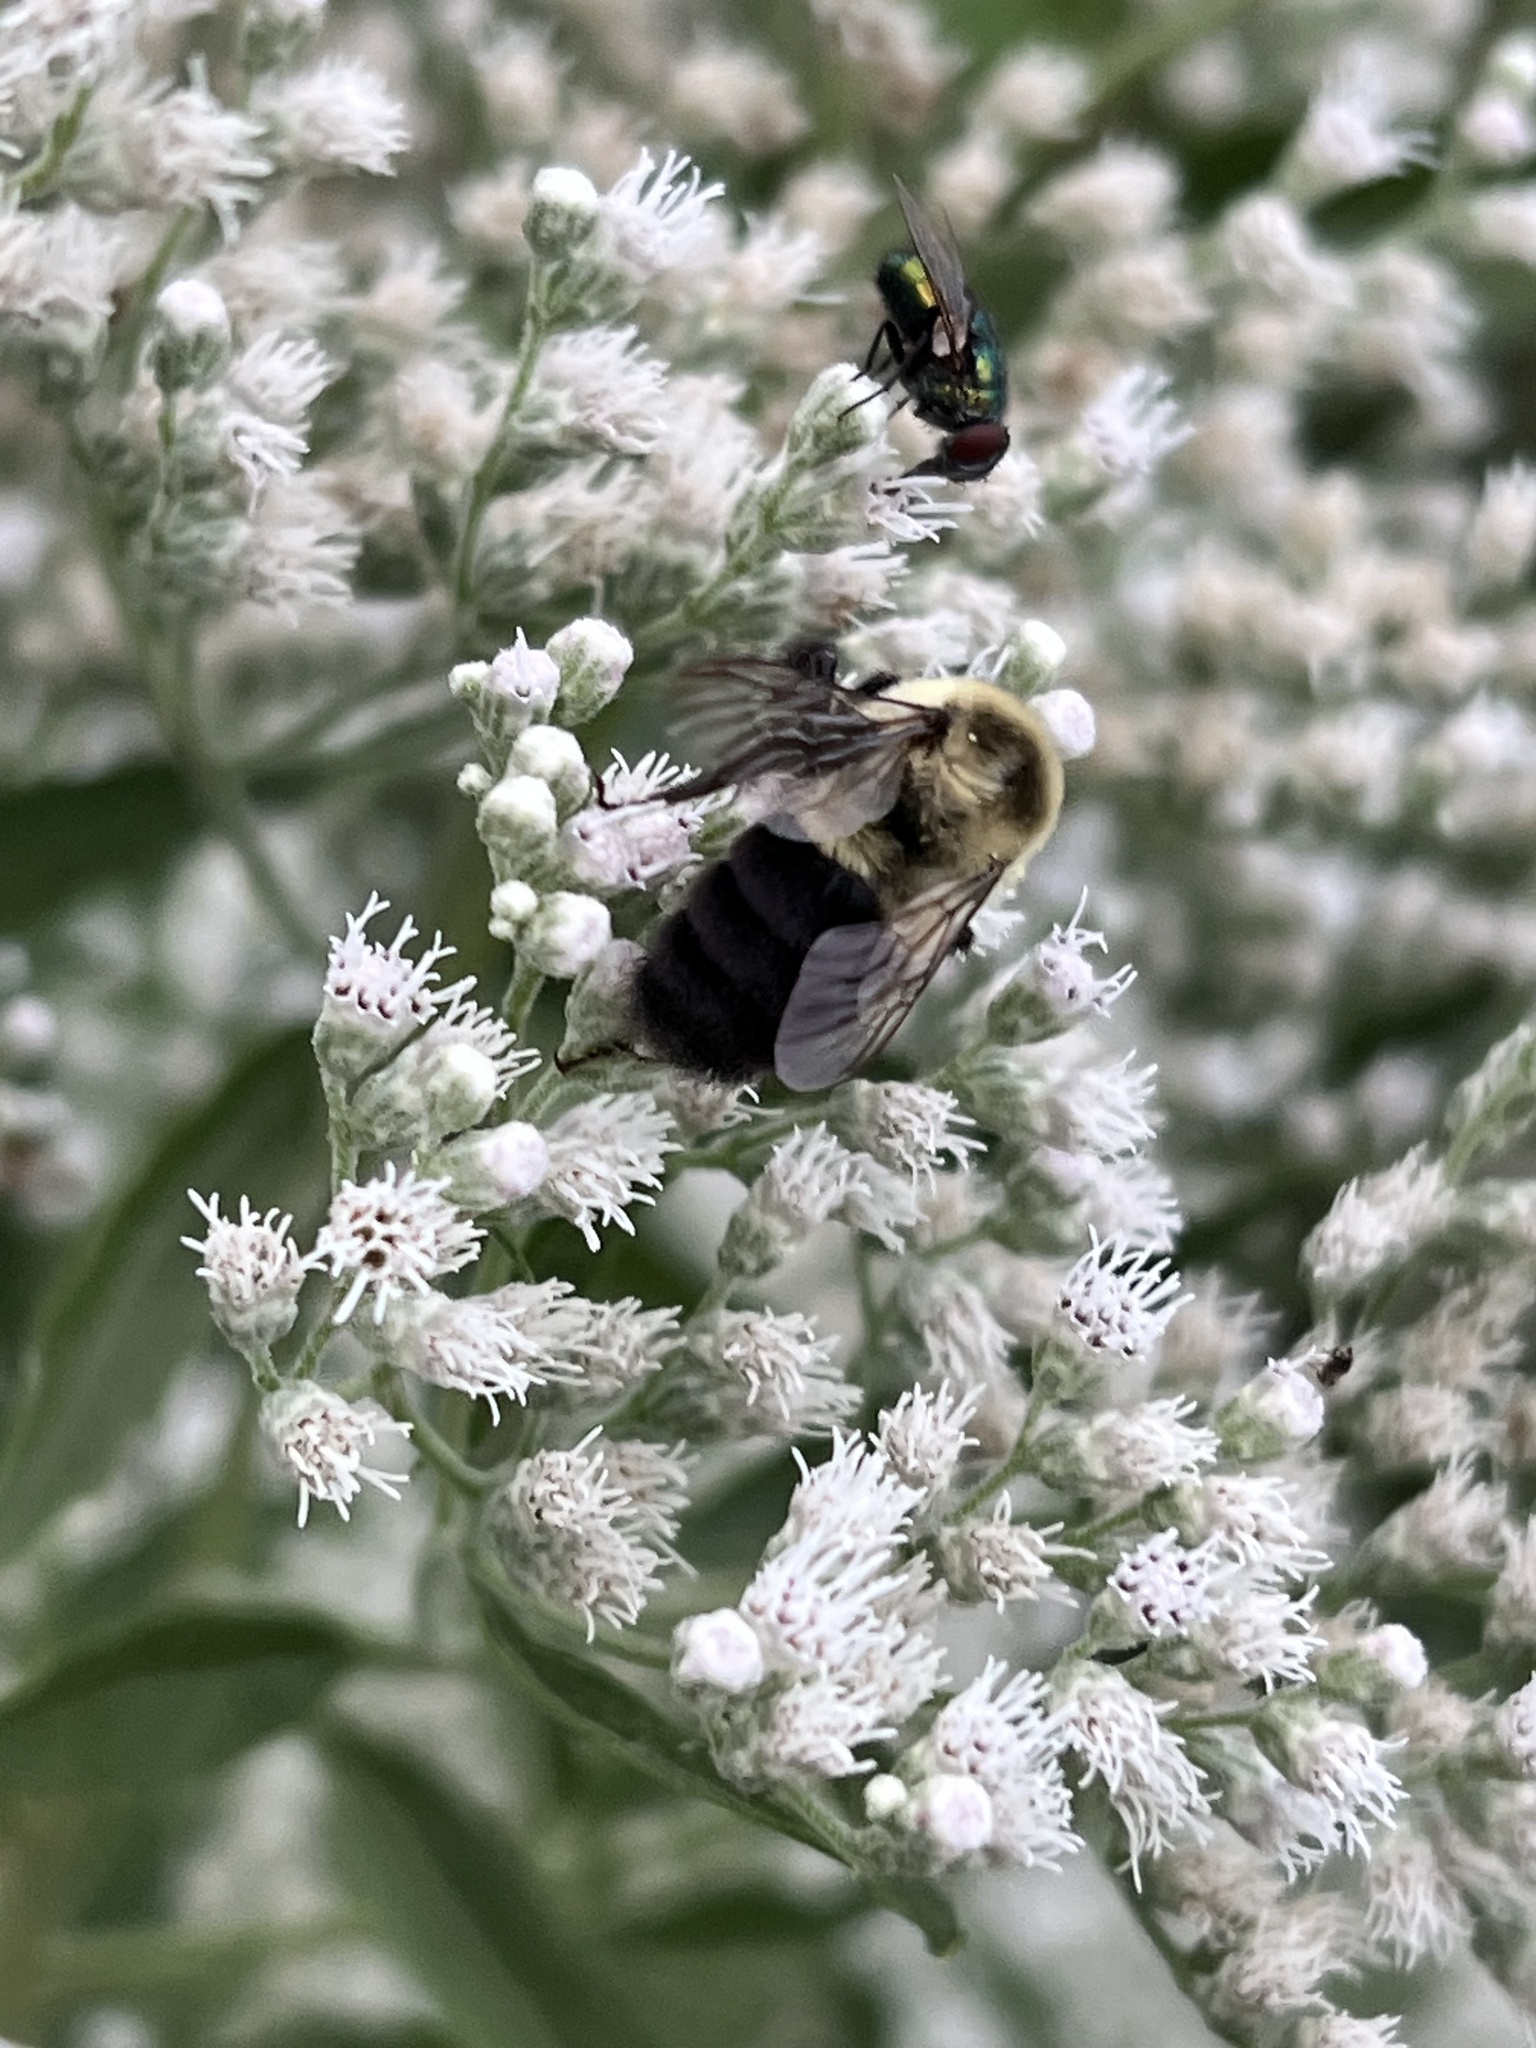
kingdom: Animalia
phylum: Arthropoda
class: Insecta
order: Hymenoptera
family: Apidae
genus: Bombus
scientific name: Bombus impatiens
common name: Common eastern bumble bee
